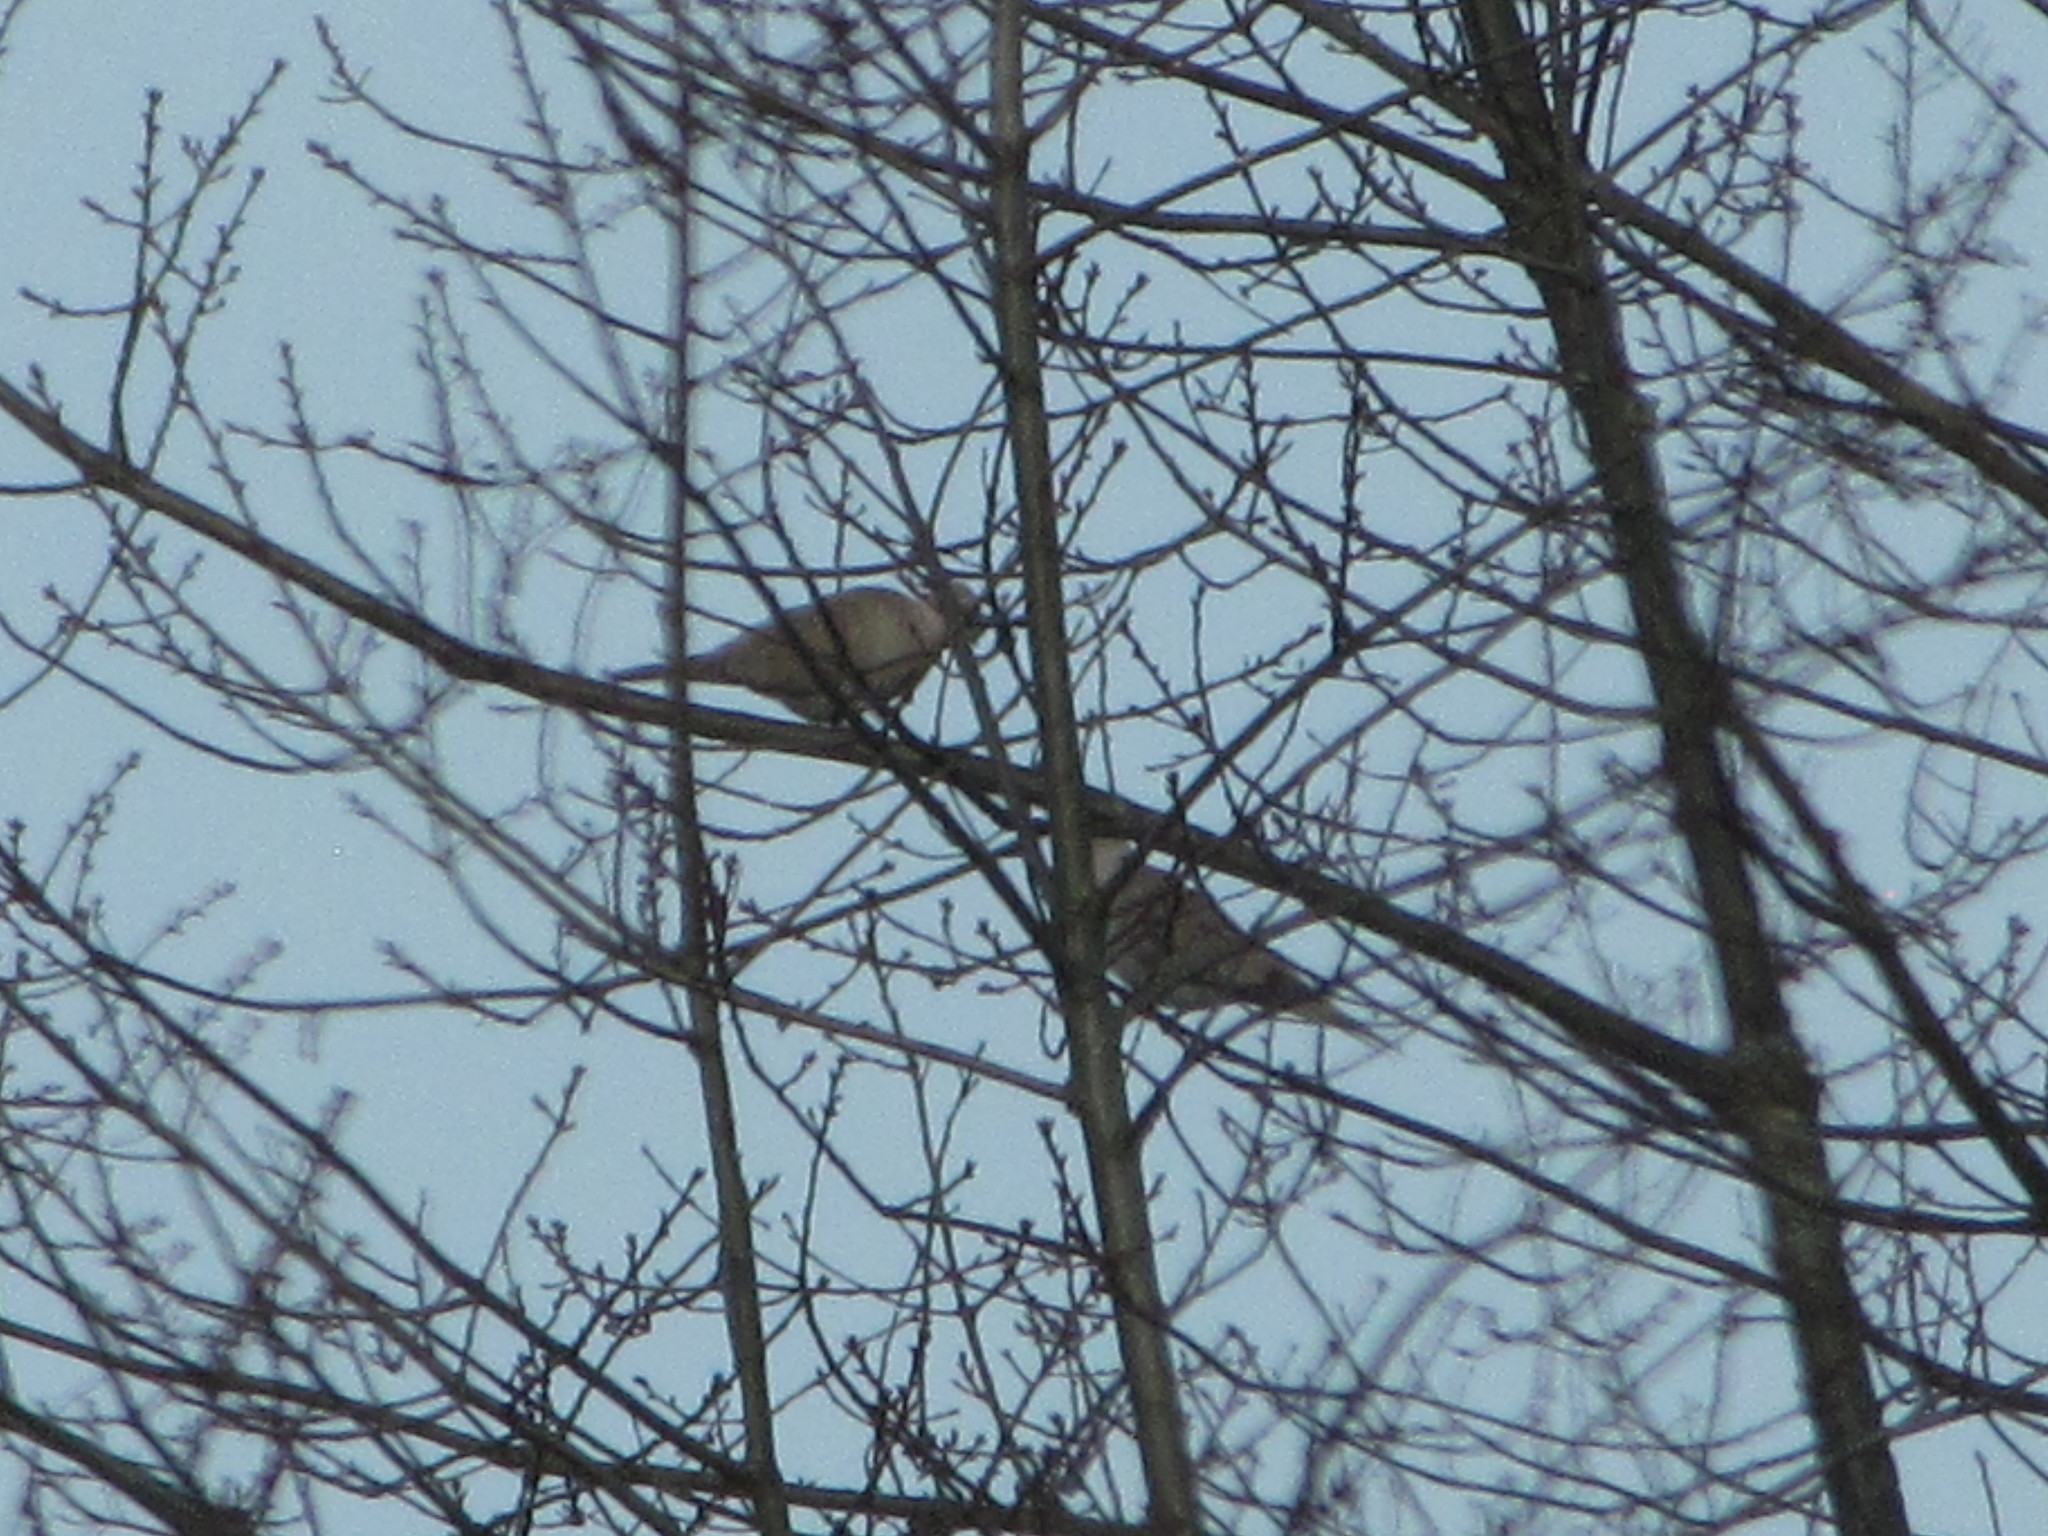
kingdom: Animalia
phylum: Chordata
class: Aves
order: Columbiformes
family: Columbidae
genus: Streptopelia
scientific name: Streptopelia decaocto
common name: Eurasian collared dove
